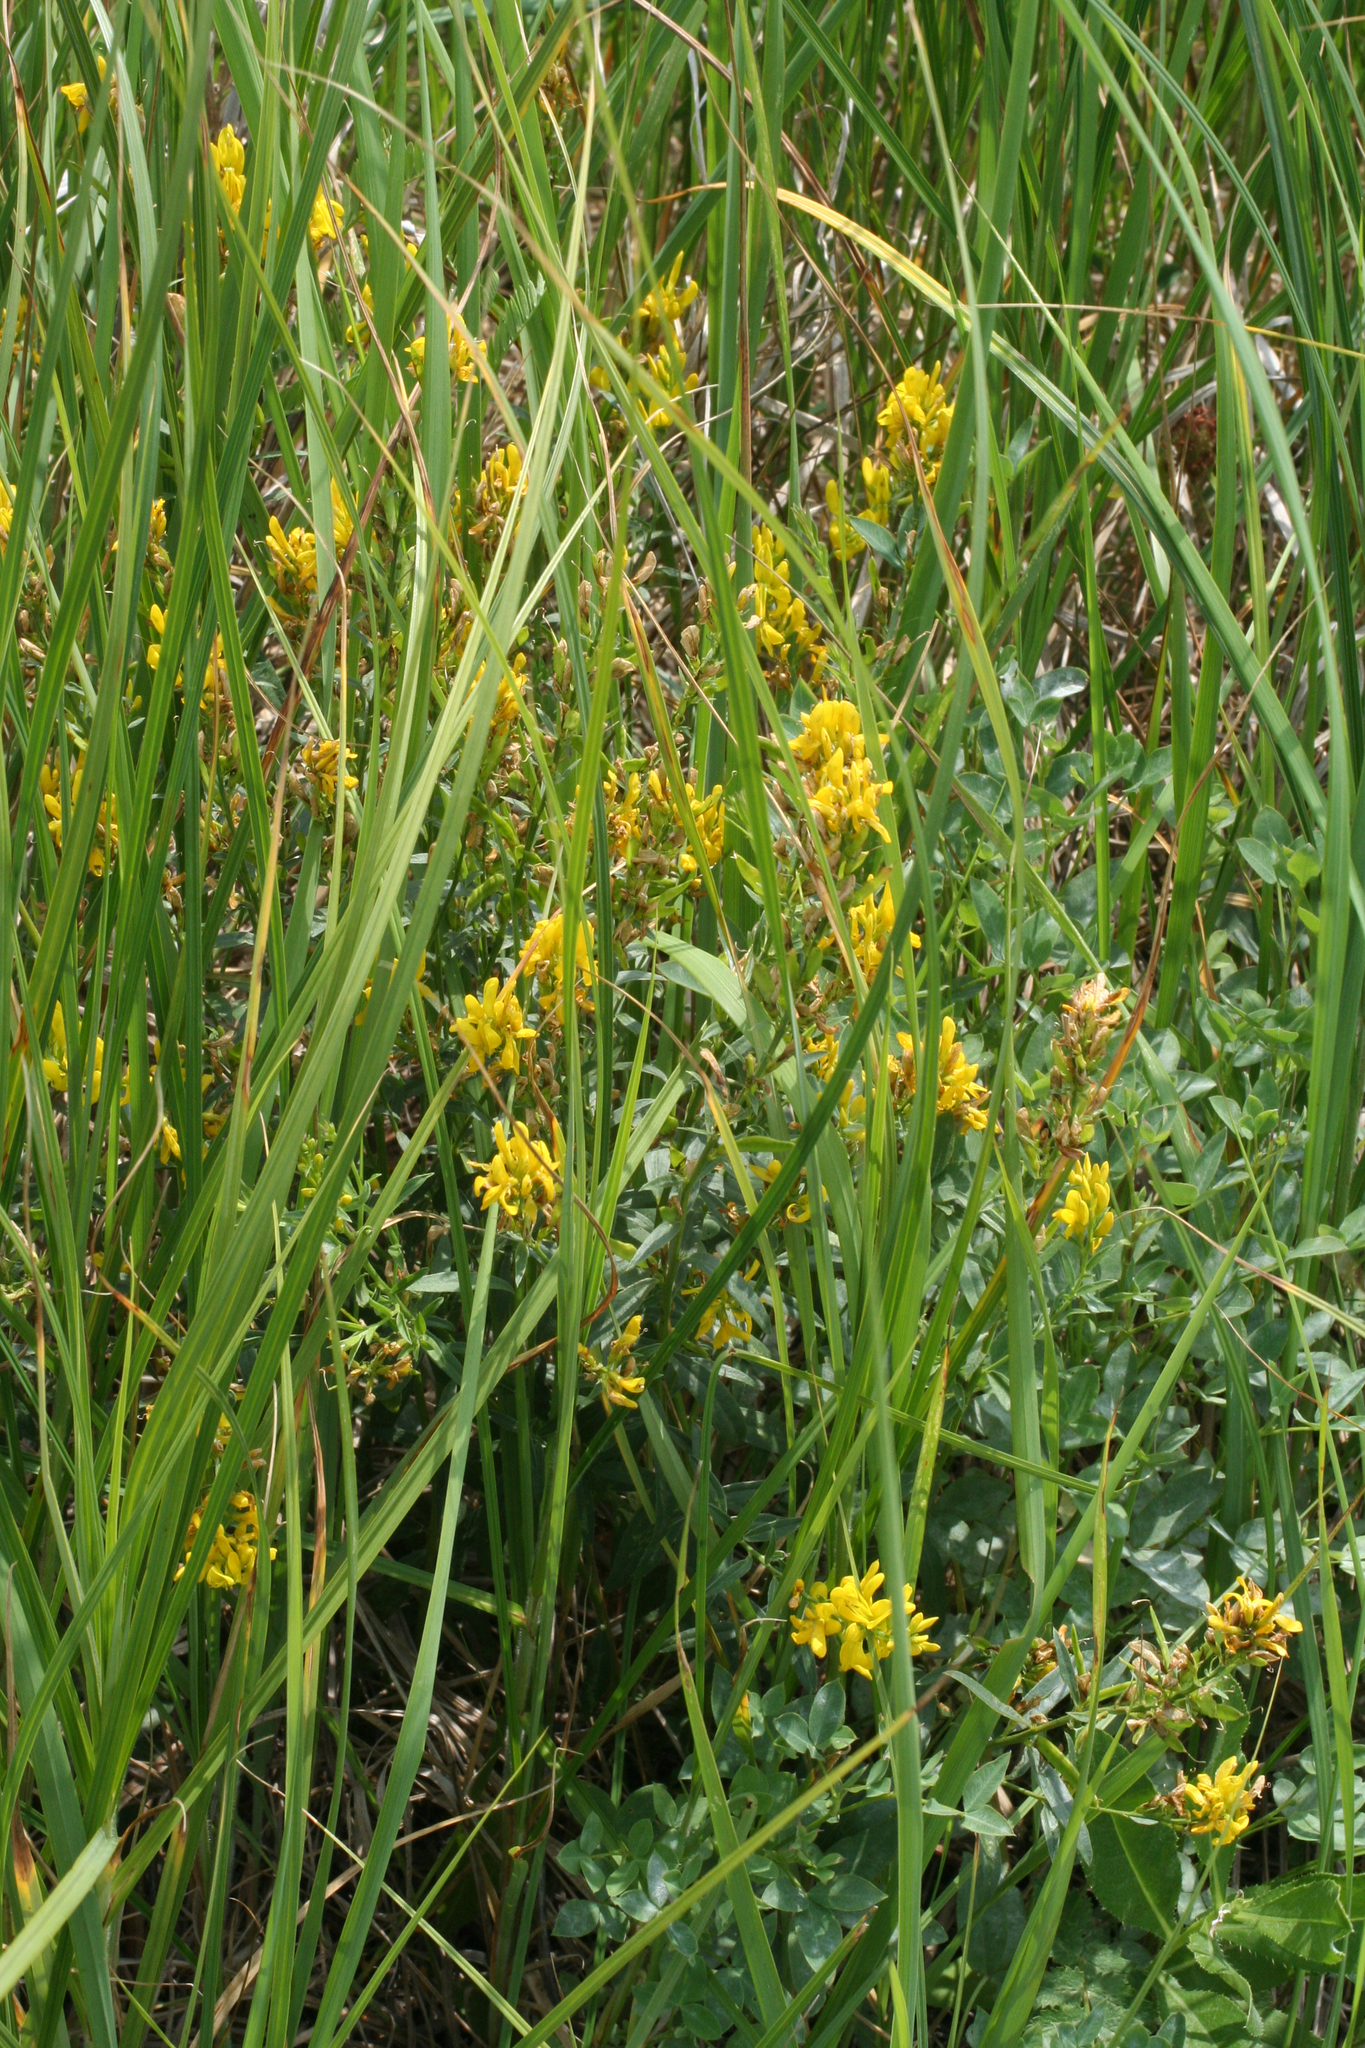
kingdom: Plantae
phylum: Tracheophyta
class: Magnoliopsida
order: Fabales
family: Fabaceae
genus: Genista
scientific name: Genista tinctoria
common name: Dyer's greenweed
